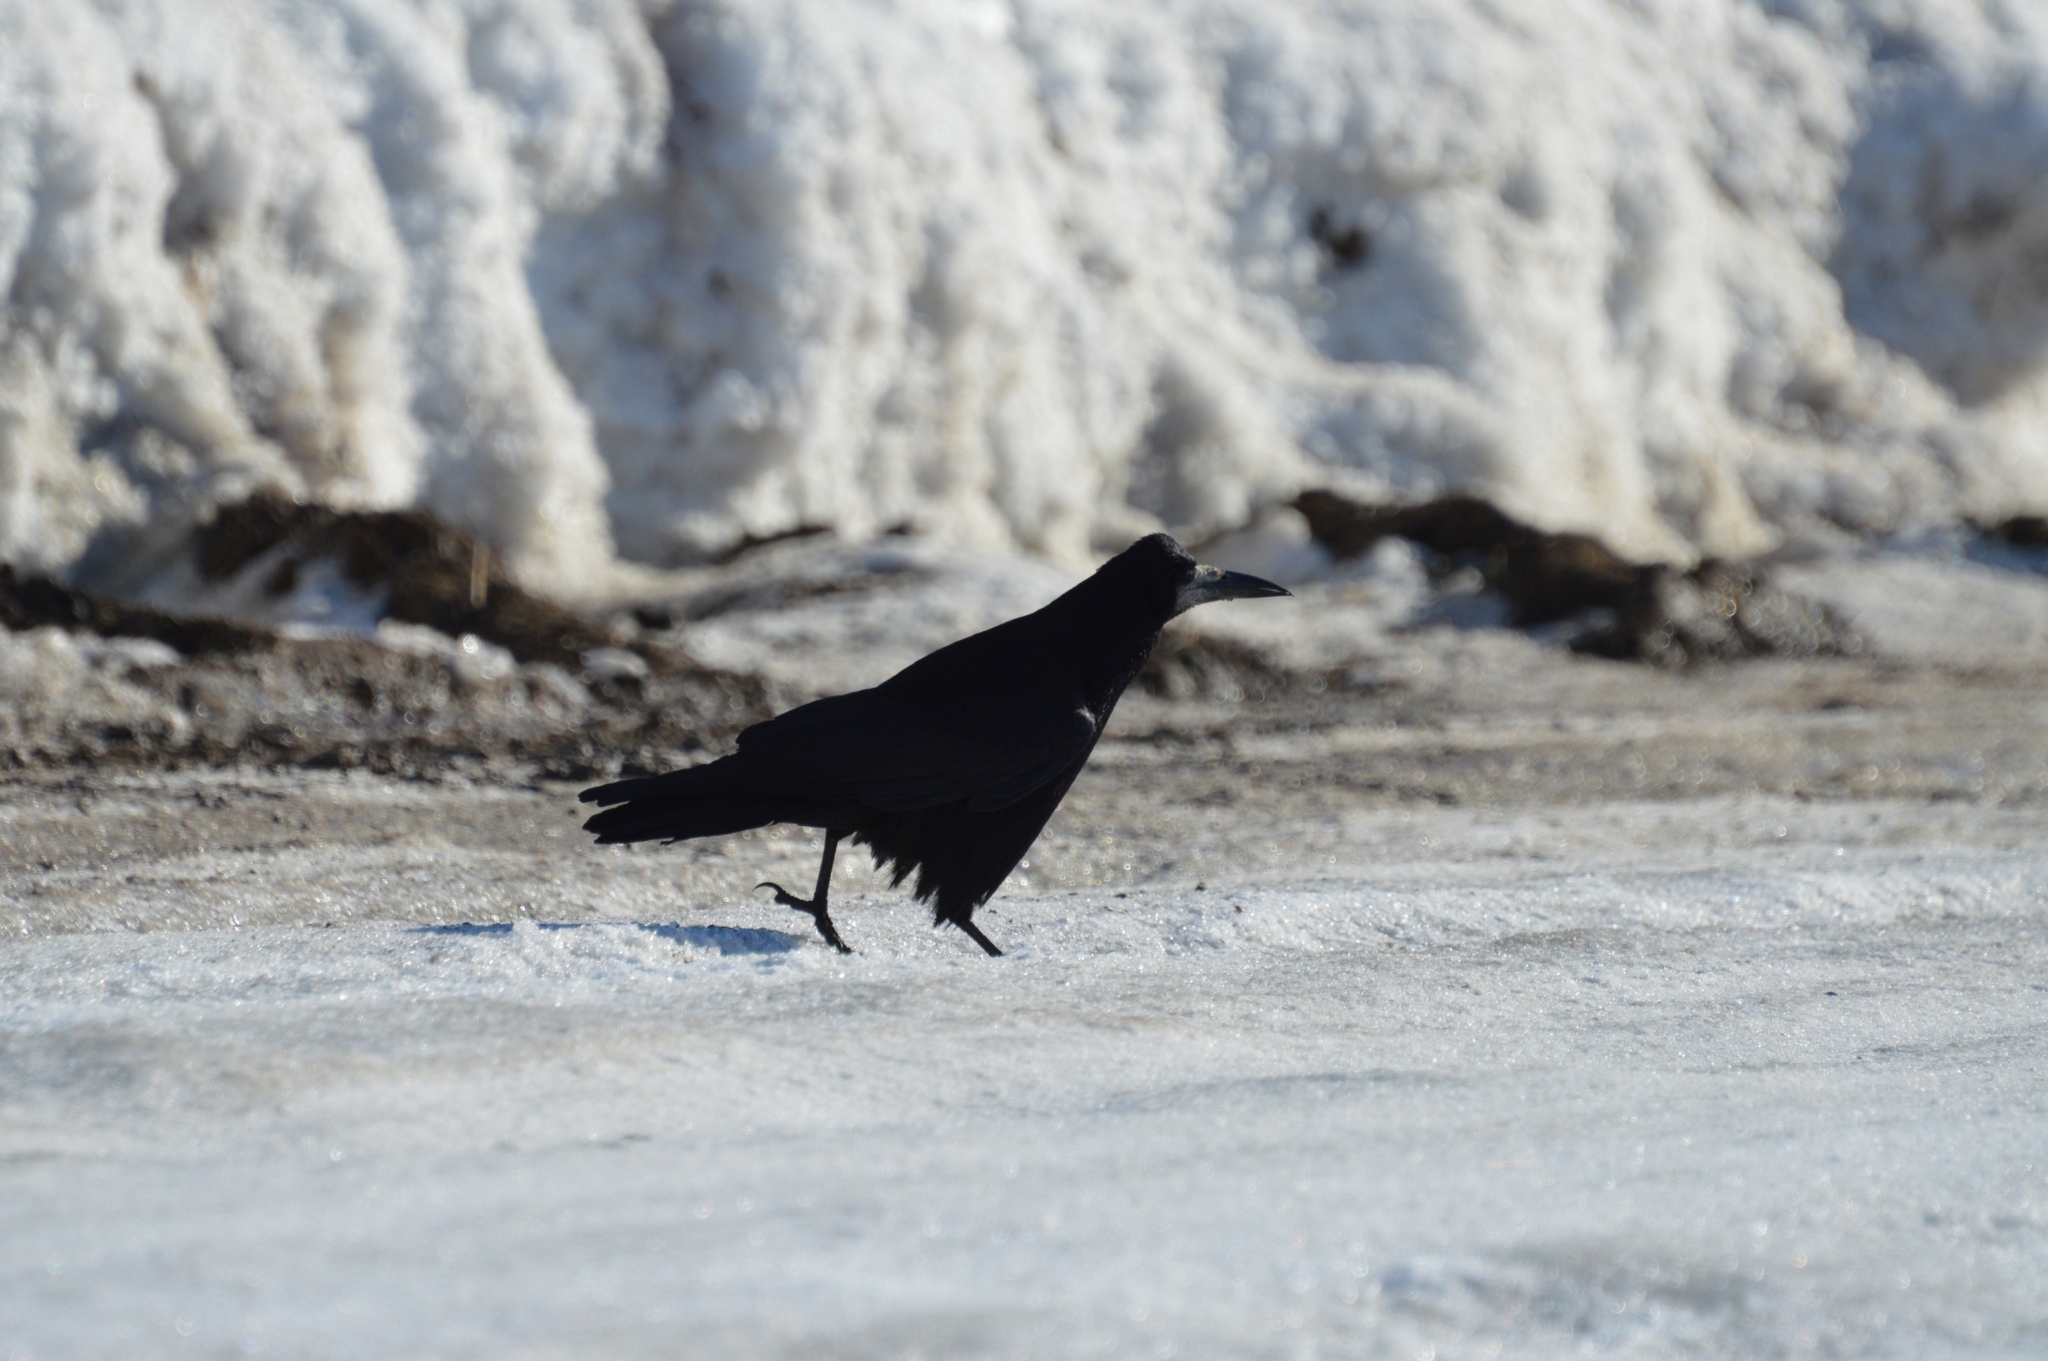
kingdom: Animalia
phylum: Chordata
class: Aves
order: Passeriformes
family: Corvidae
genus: Corvus
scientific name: Corvus frugilegus
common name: Rook
